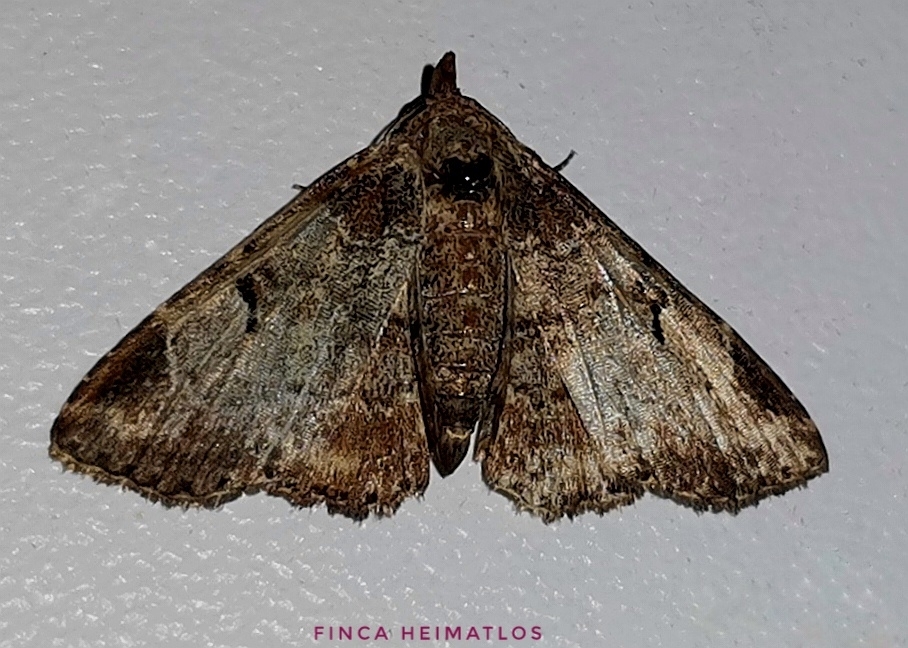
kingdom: Animalia
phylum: Arthropoda
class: Insecta
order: Lepidoptera
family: Erebidae
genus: Metalectra
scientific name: Metalectra ecchlora
